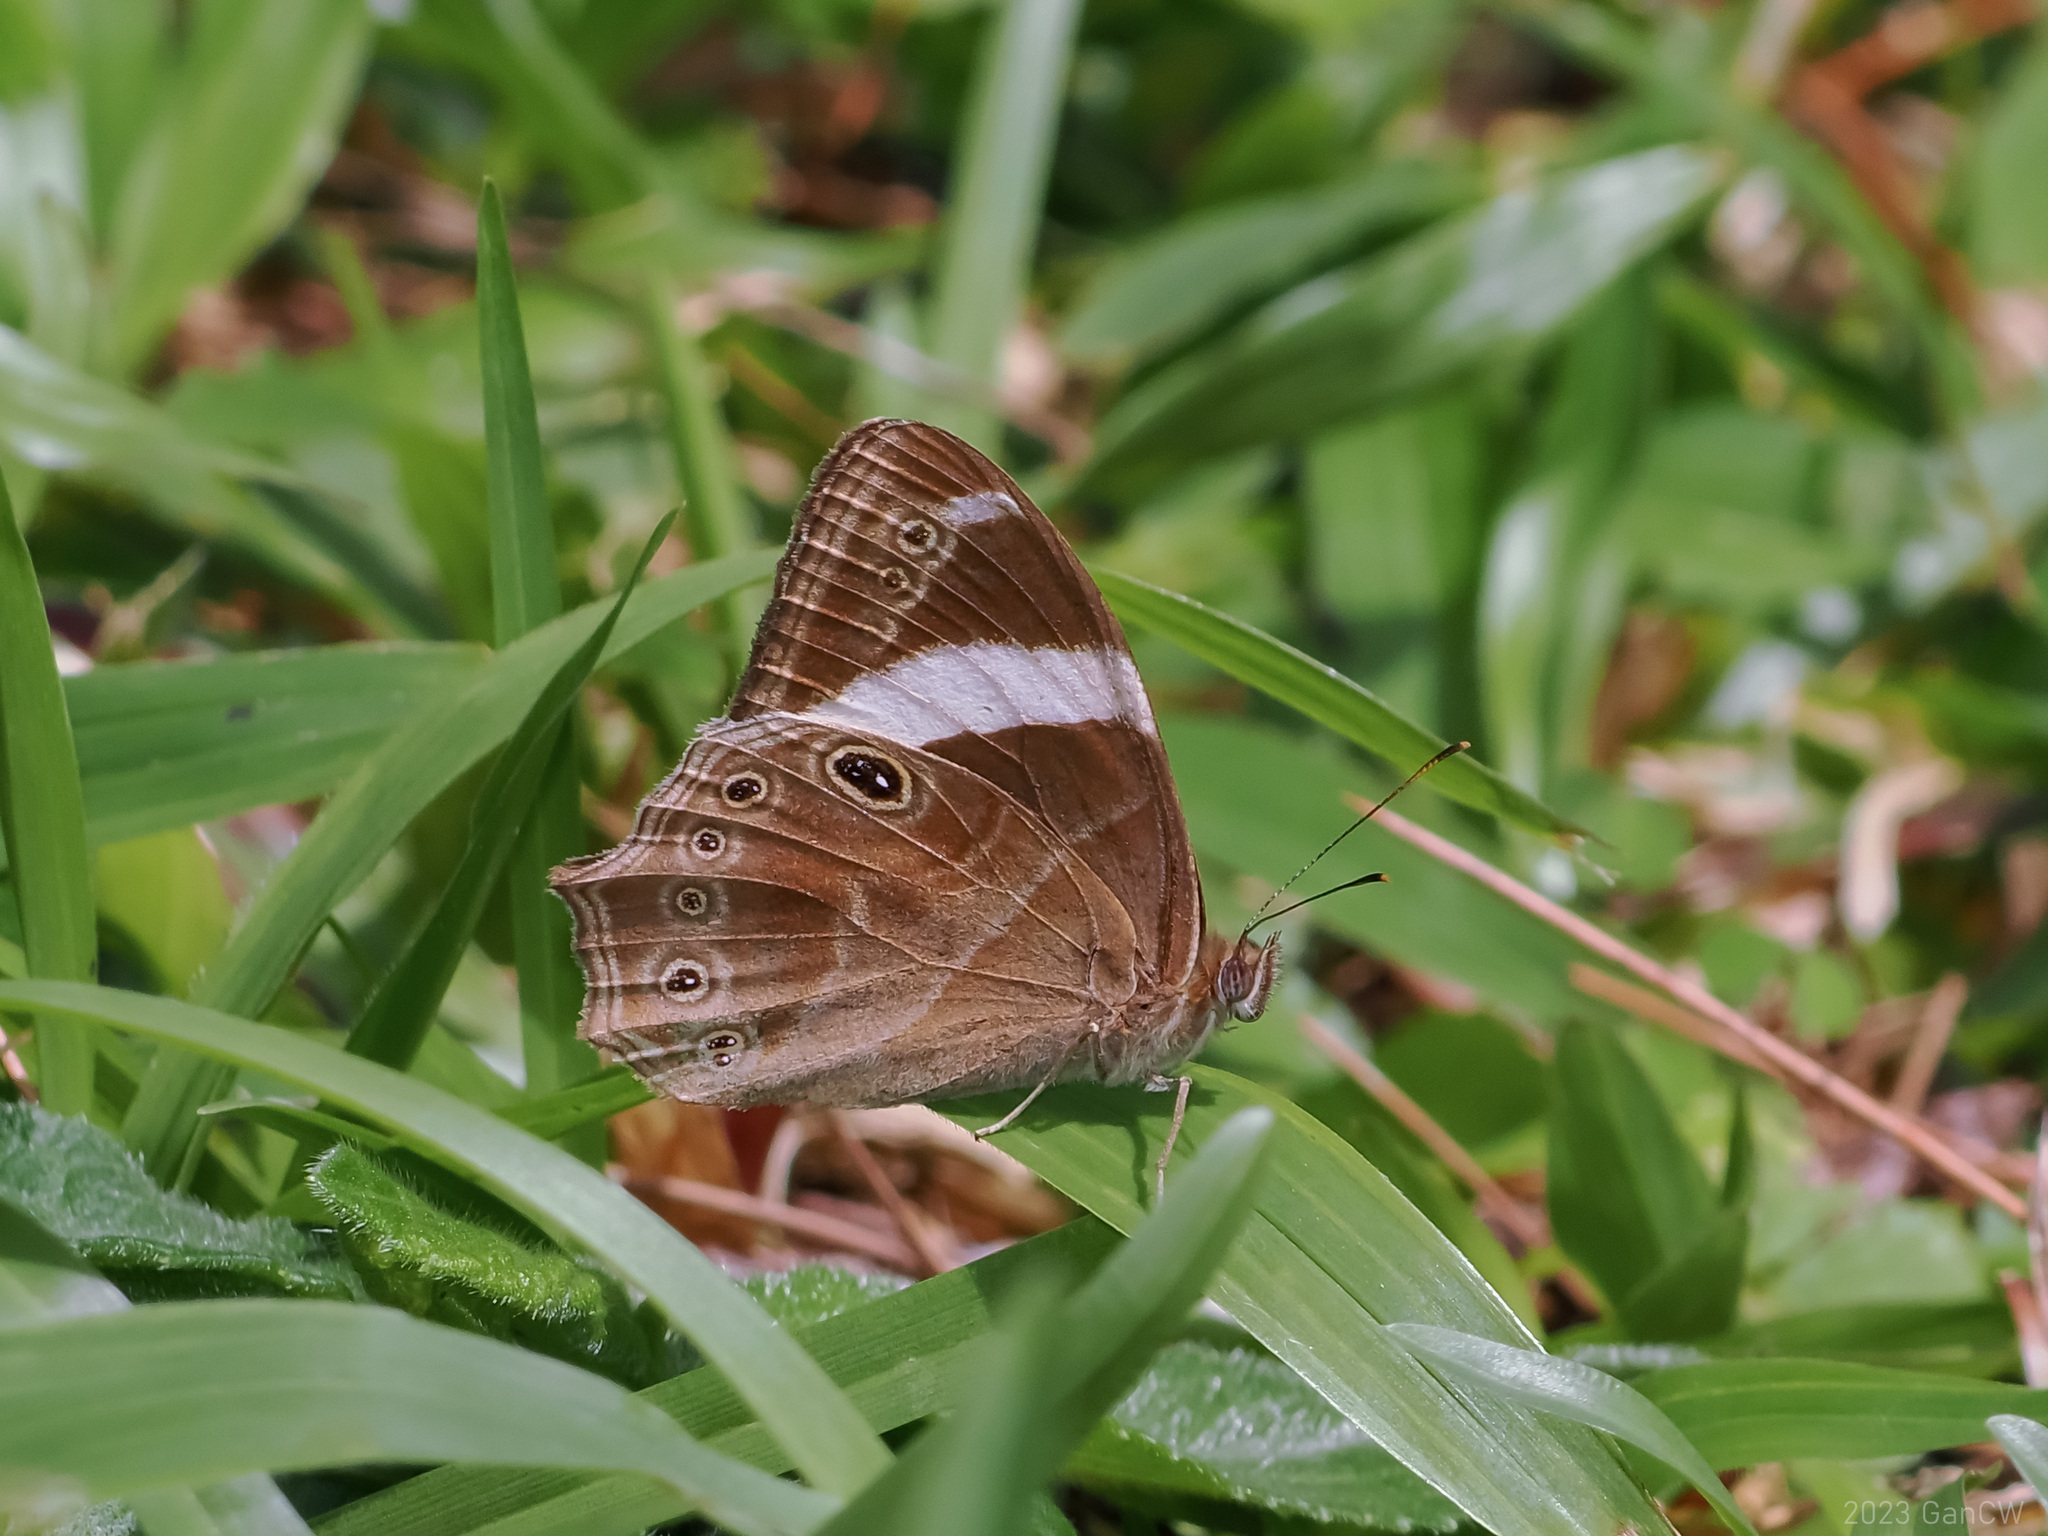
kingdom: Animalia
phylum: Arthropoda
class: Insecta
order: Lepidoptera
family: Nymphalidae
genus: Lethe
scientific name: Lethe confusa
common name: Banded treebrown
